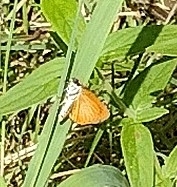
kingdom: Animalia
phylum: Arthropoda
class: Insecta
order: Lepidoptera
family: Hesperiidae
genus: Ancyloxypha
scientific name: Ancyloxypha numitor
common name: Least skipper
